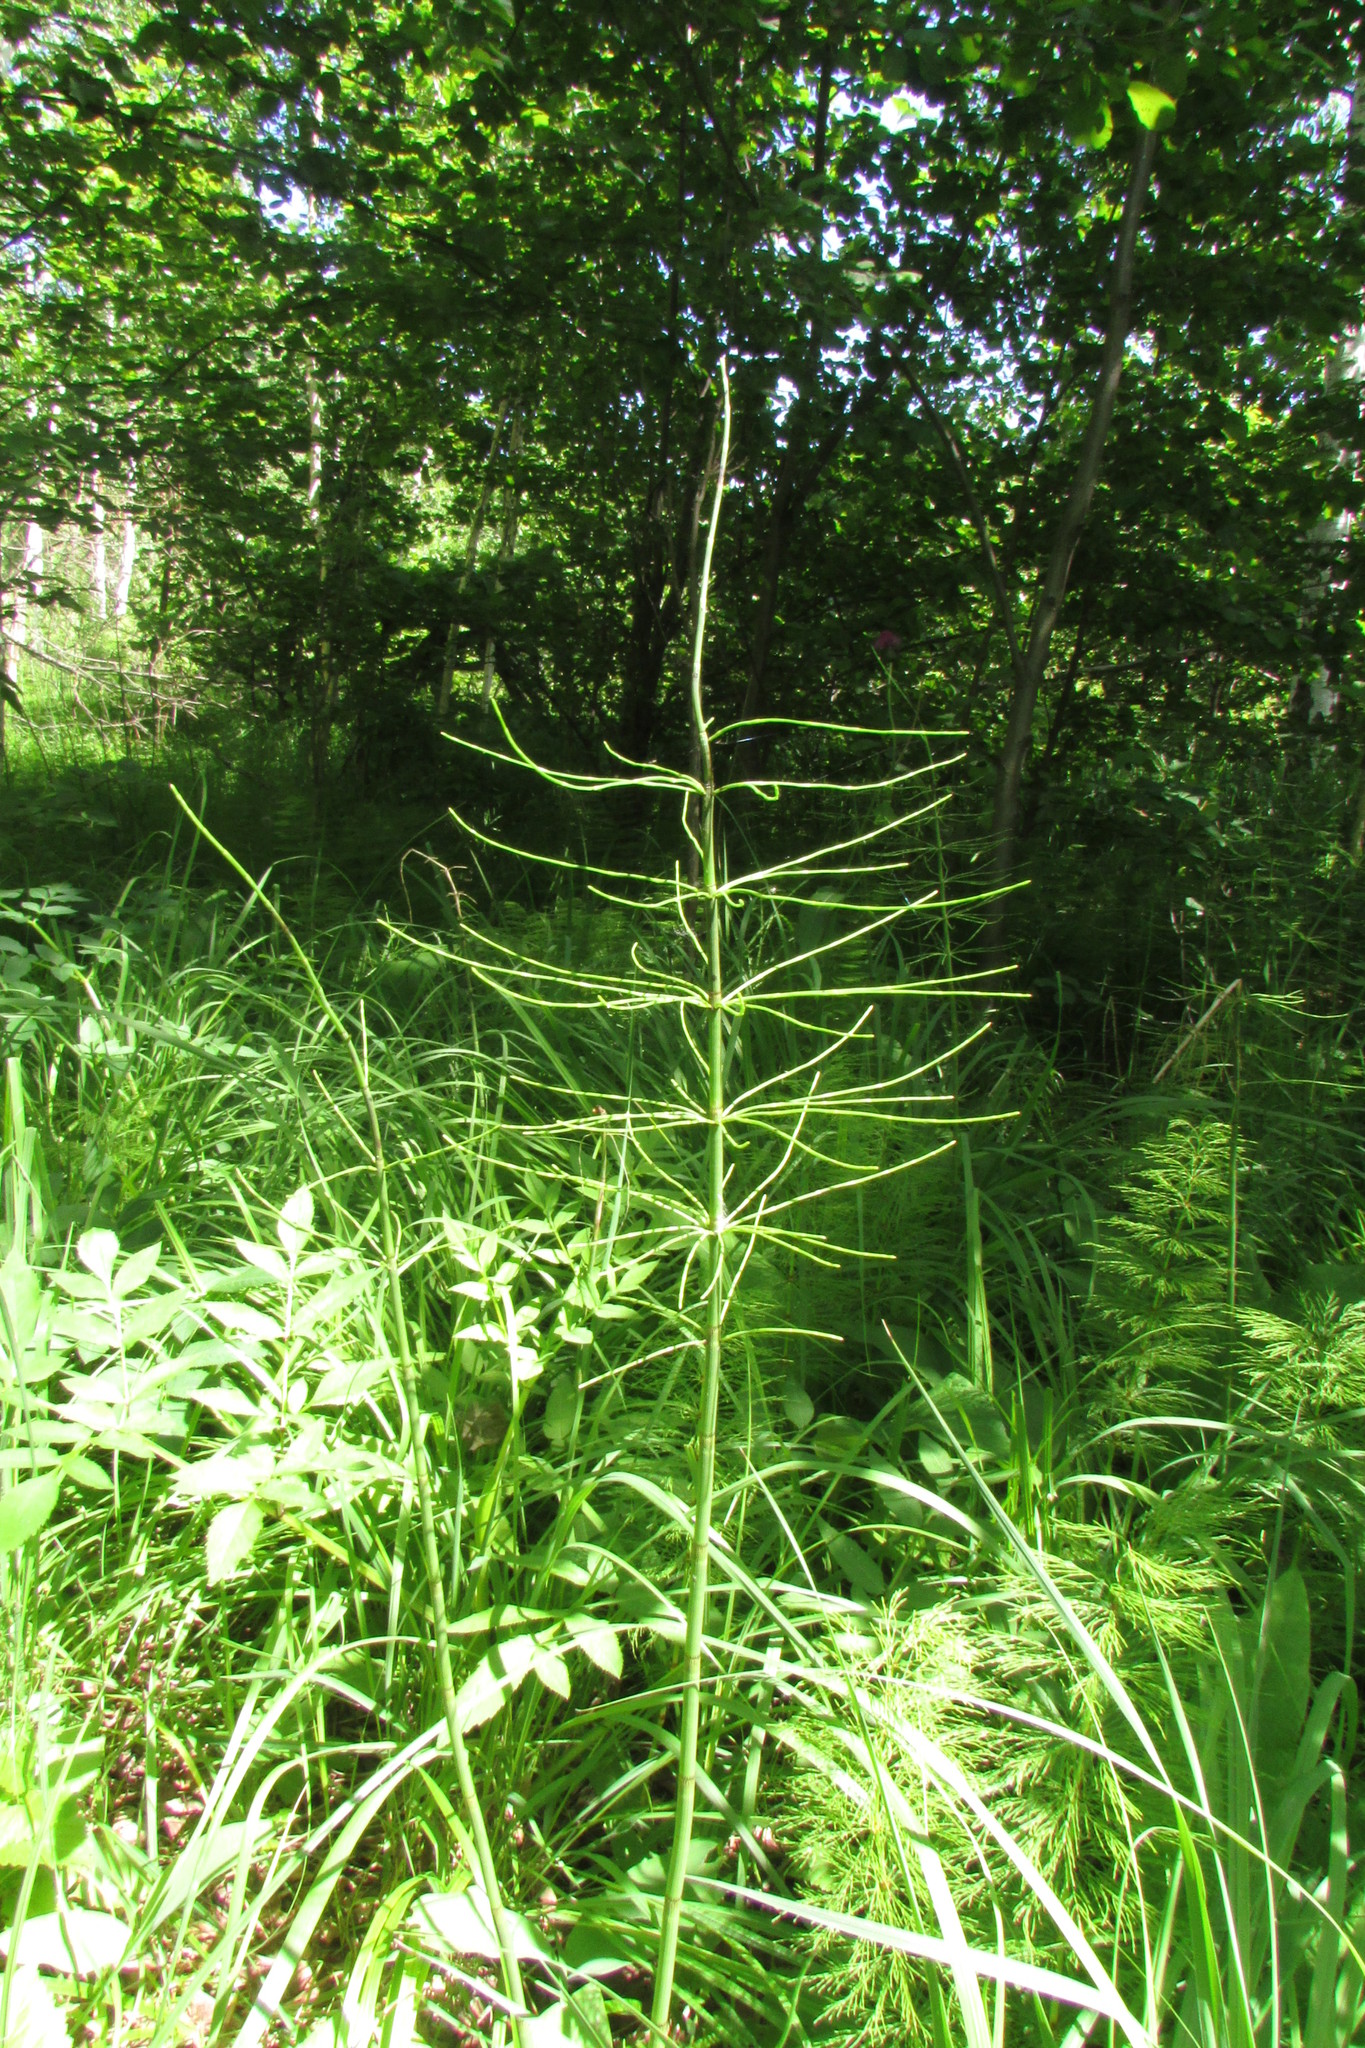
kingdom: Plantae
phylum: Tracheophyta
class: Polypodiopsida
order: Equisetales
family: Equisetaceae
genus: Equisetum
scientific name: Equisetum fluviatile
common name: Water horsetail
